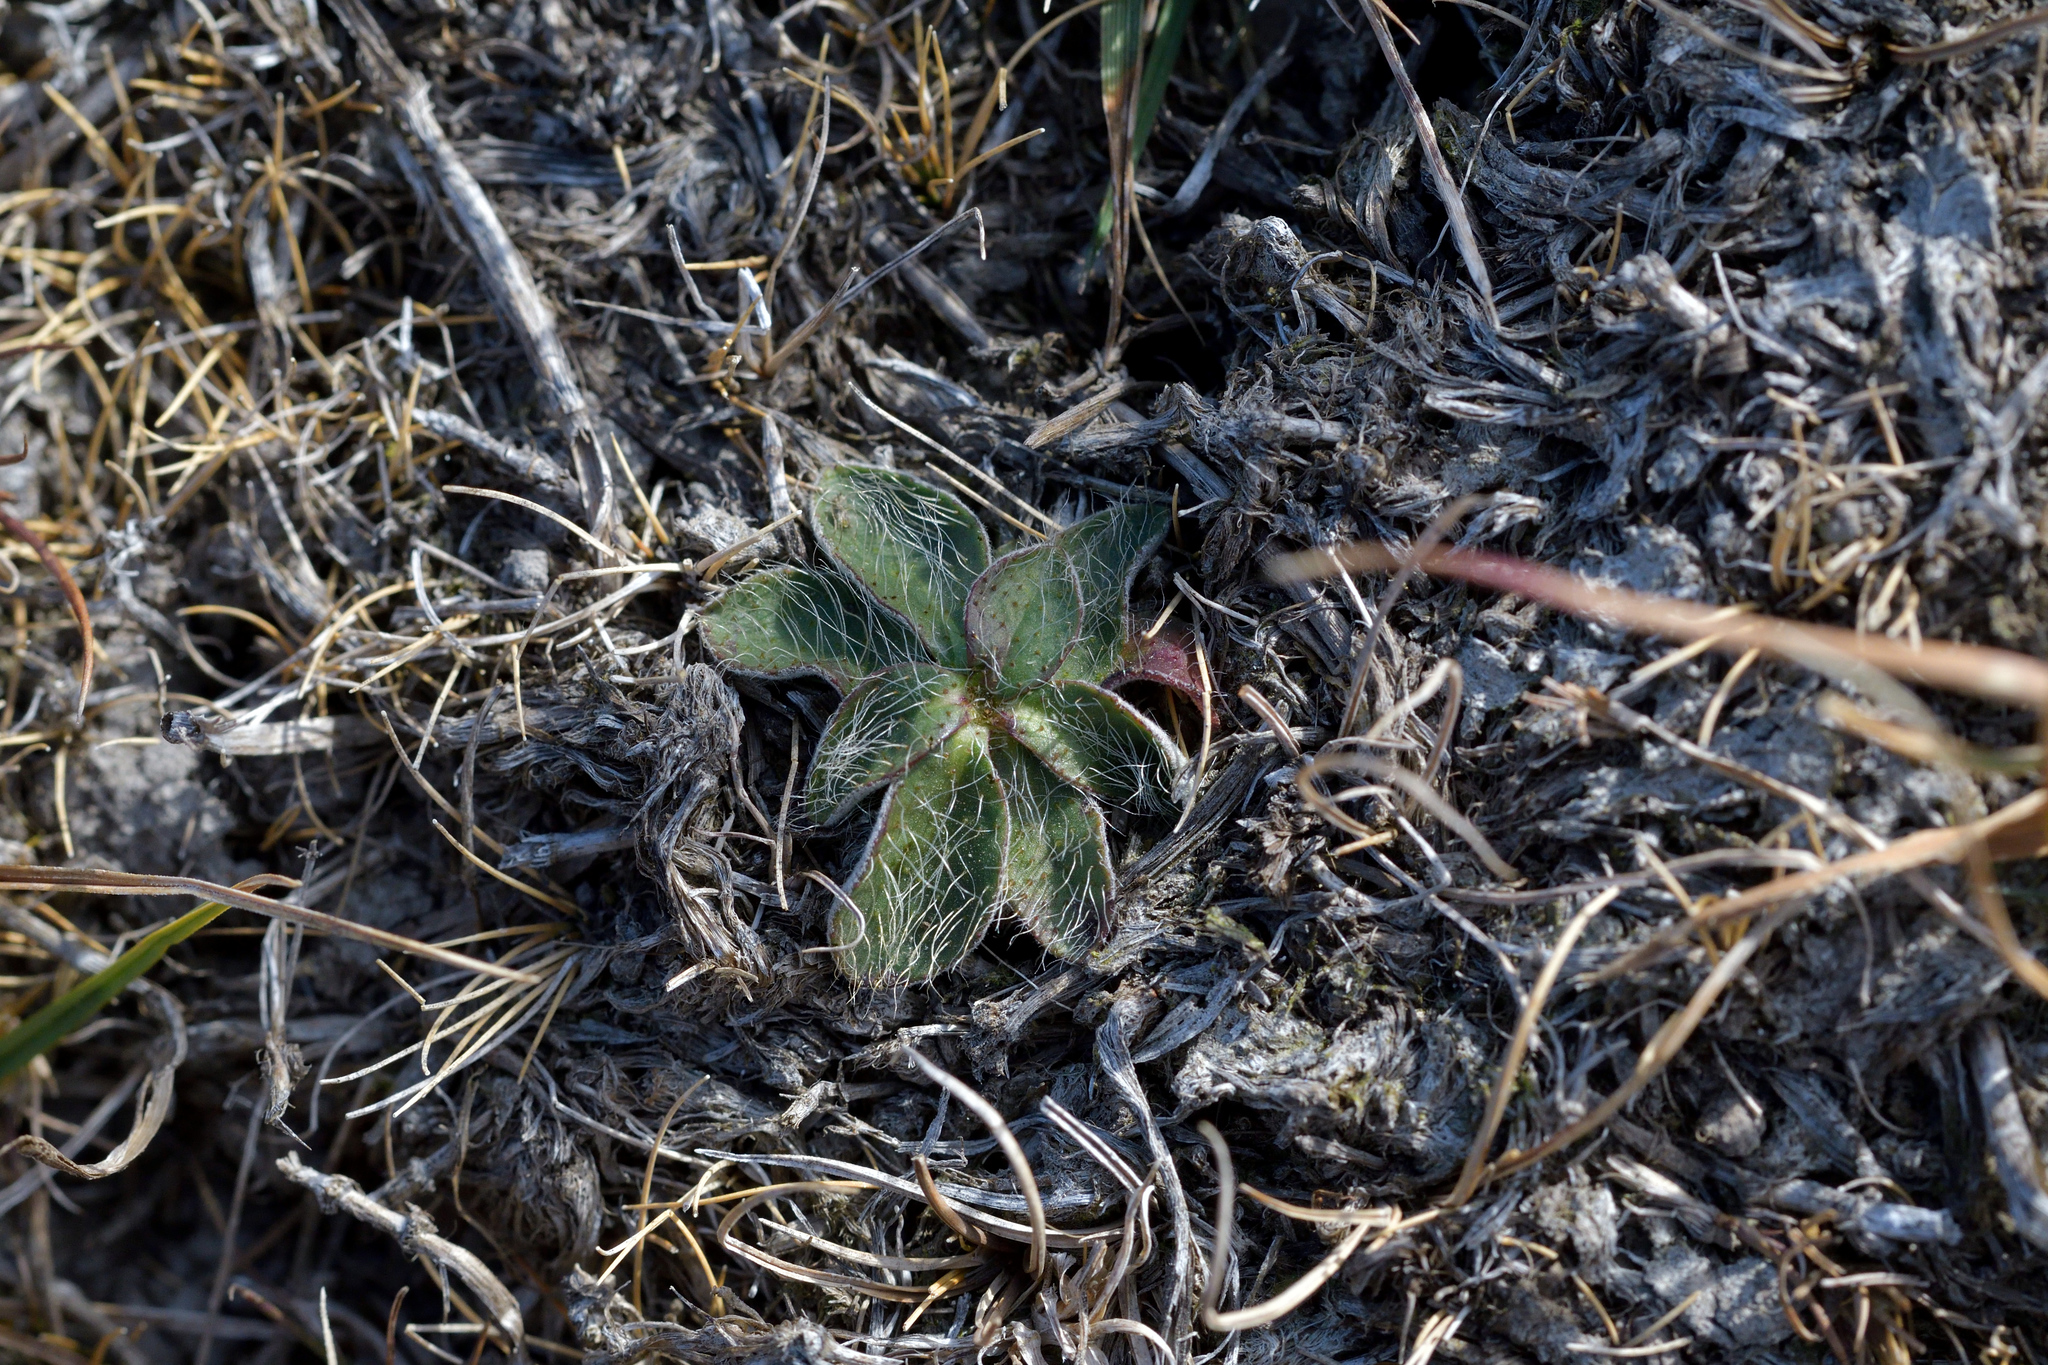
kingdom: Plantae
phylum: Tracheophyta
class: Magnoliopsida
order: Asterales
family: Asteraceae
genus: Pilosella
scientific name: Pilosella officinarum
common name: Mouse-ear hawkweed
